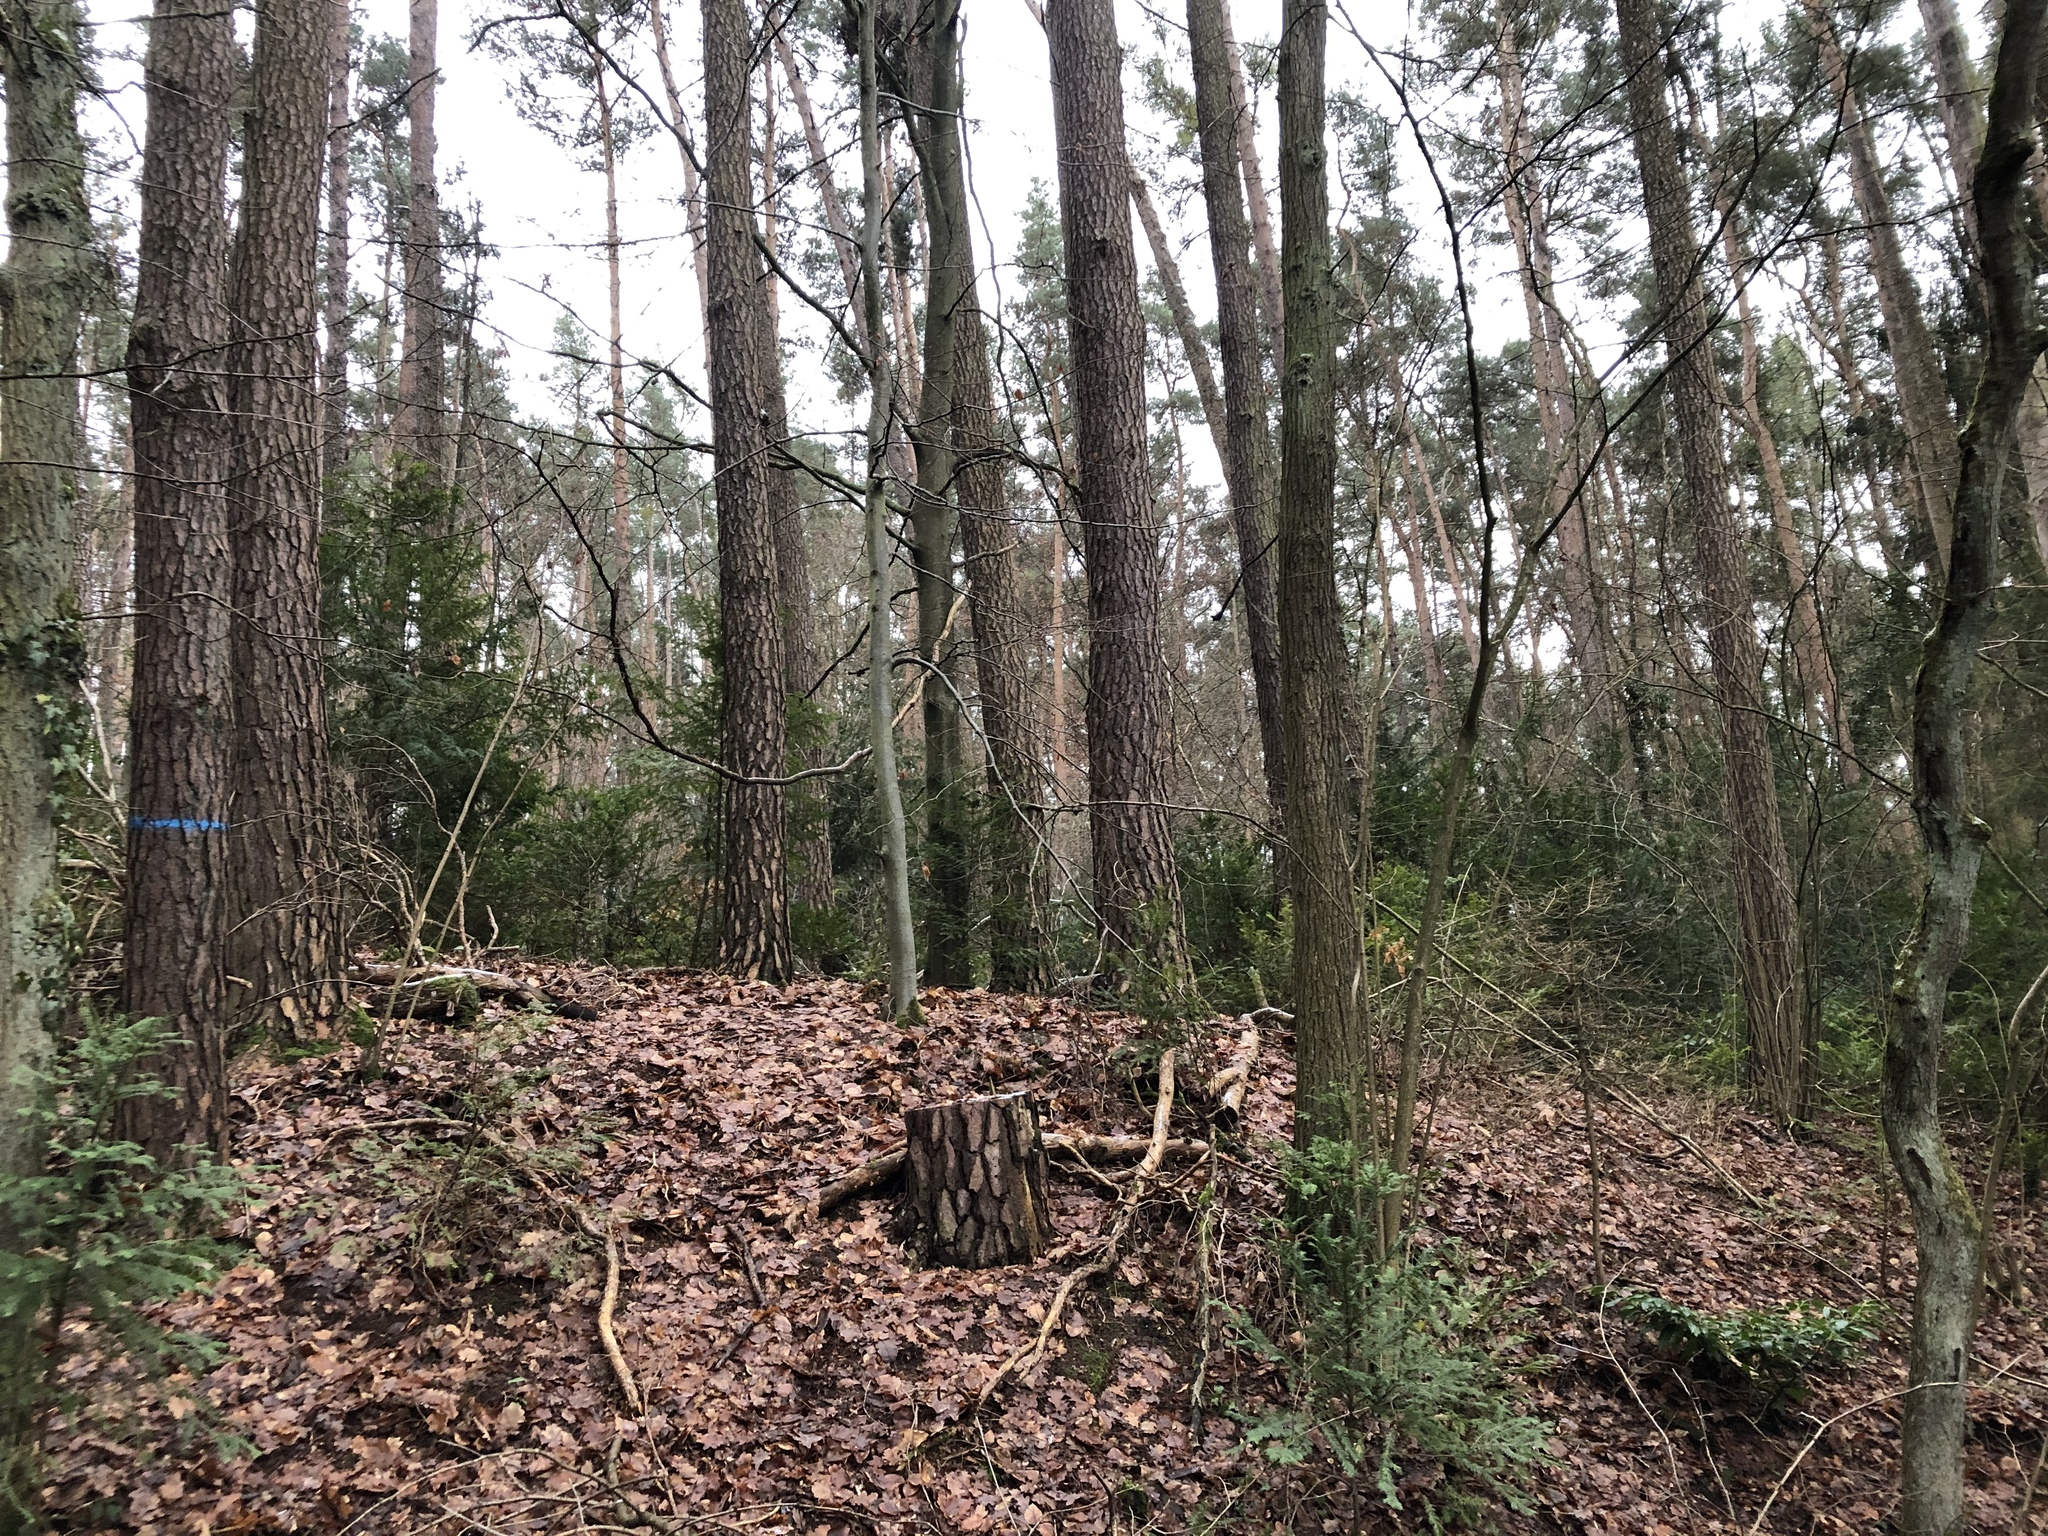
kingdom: Plantae
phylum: Tracheophyta
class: Pinopsida
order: Pinales
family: Taxaceae
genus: Taxus
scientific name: Taxus baccata
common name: Yew
